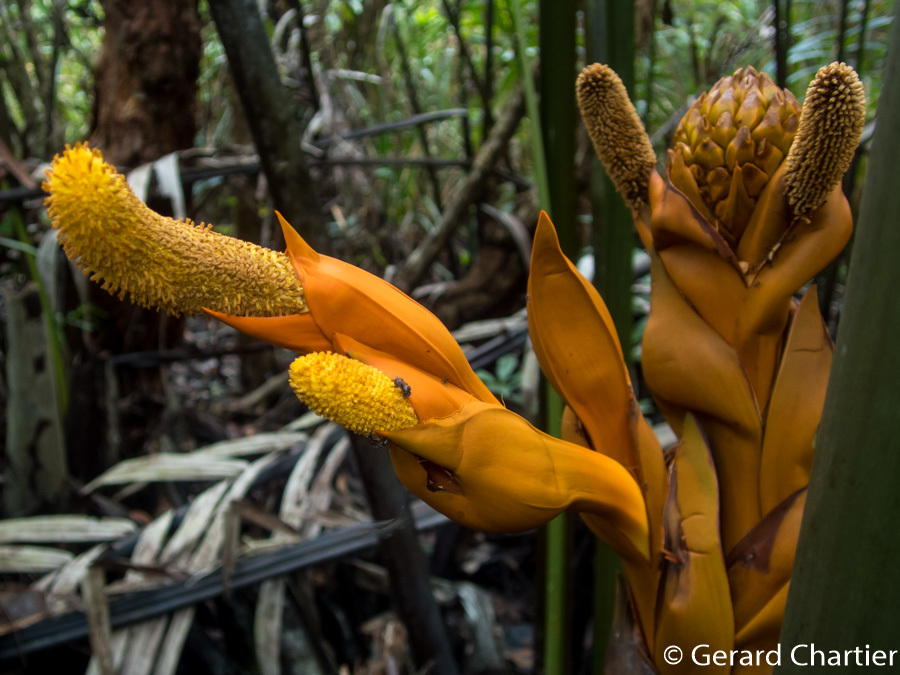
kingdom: Plantae
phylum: Tracheophyta
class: Liliopsida
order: Arecales
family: Arecaceae
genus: Nypa
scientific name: Nypa fruticans
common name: Mangrove palm
